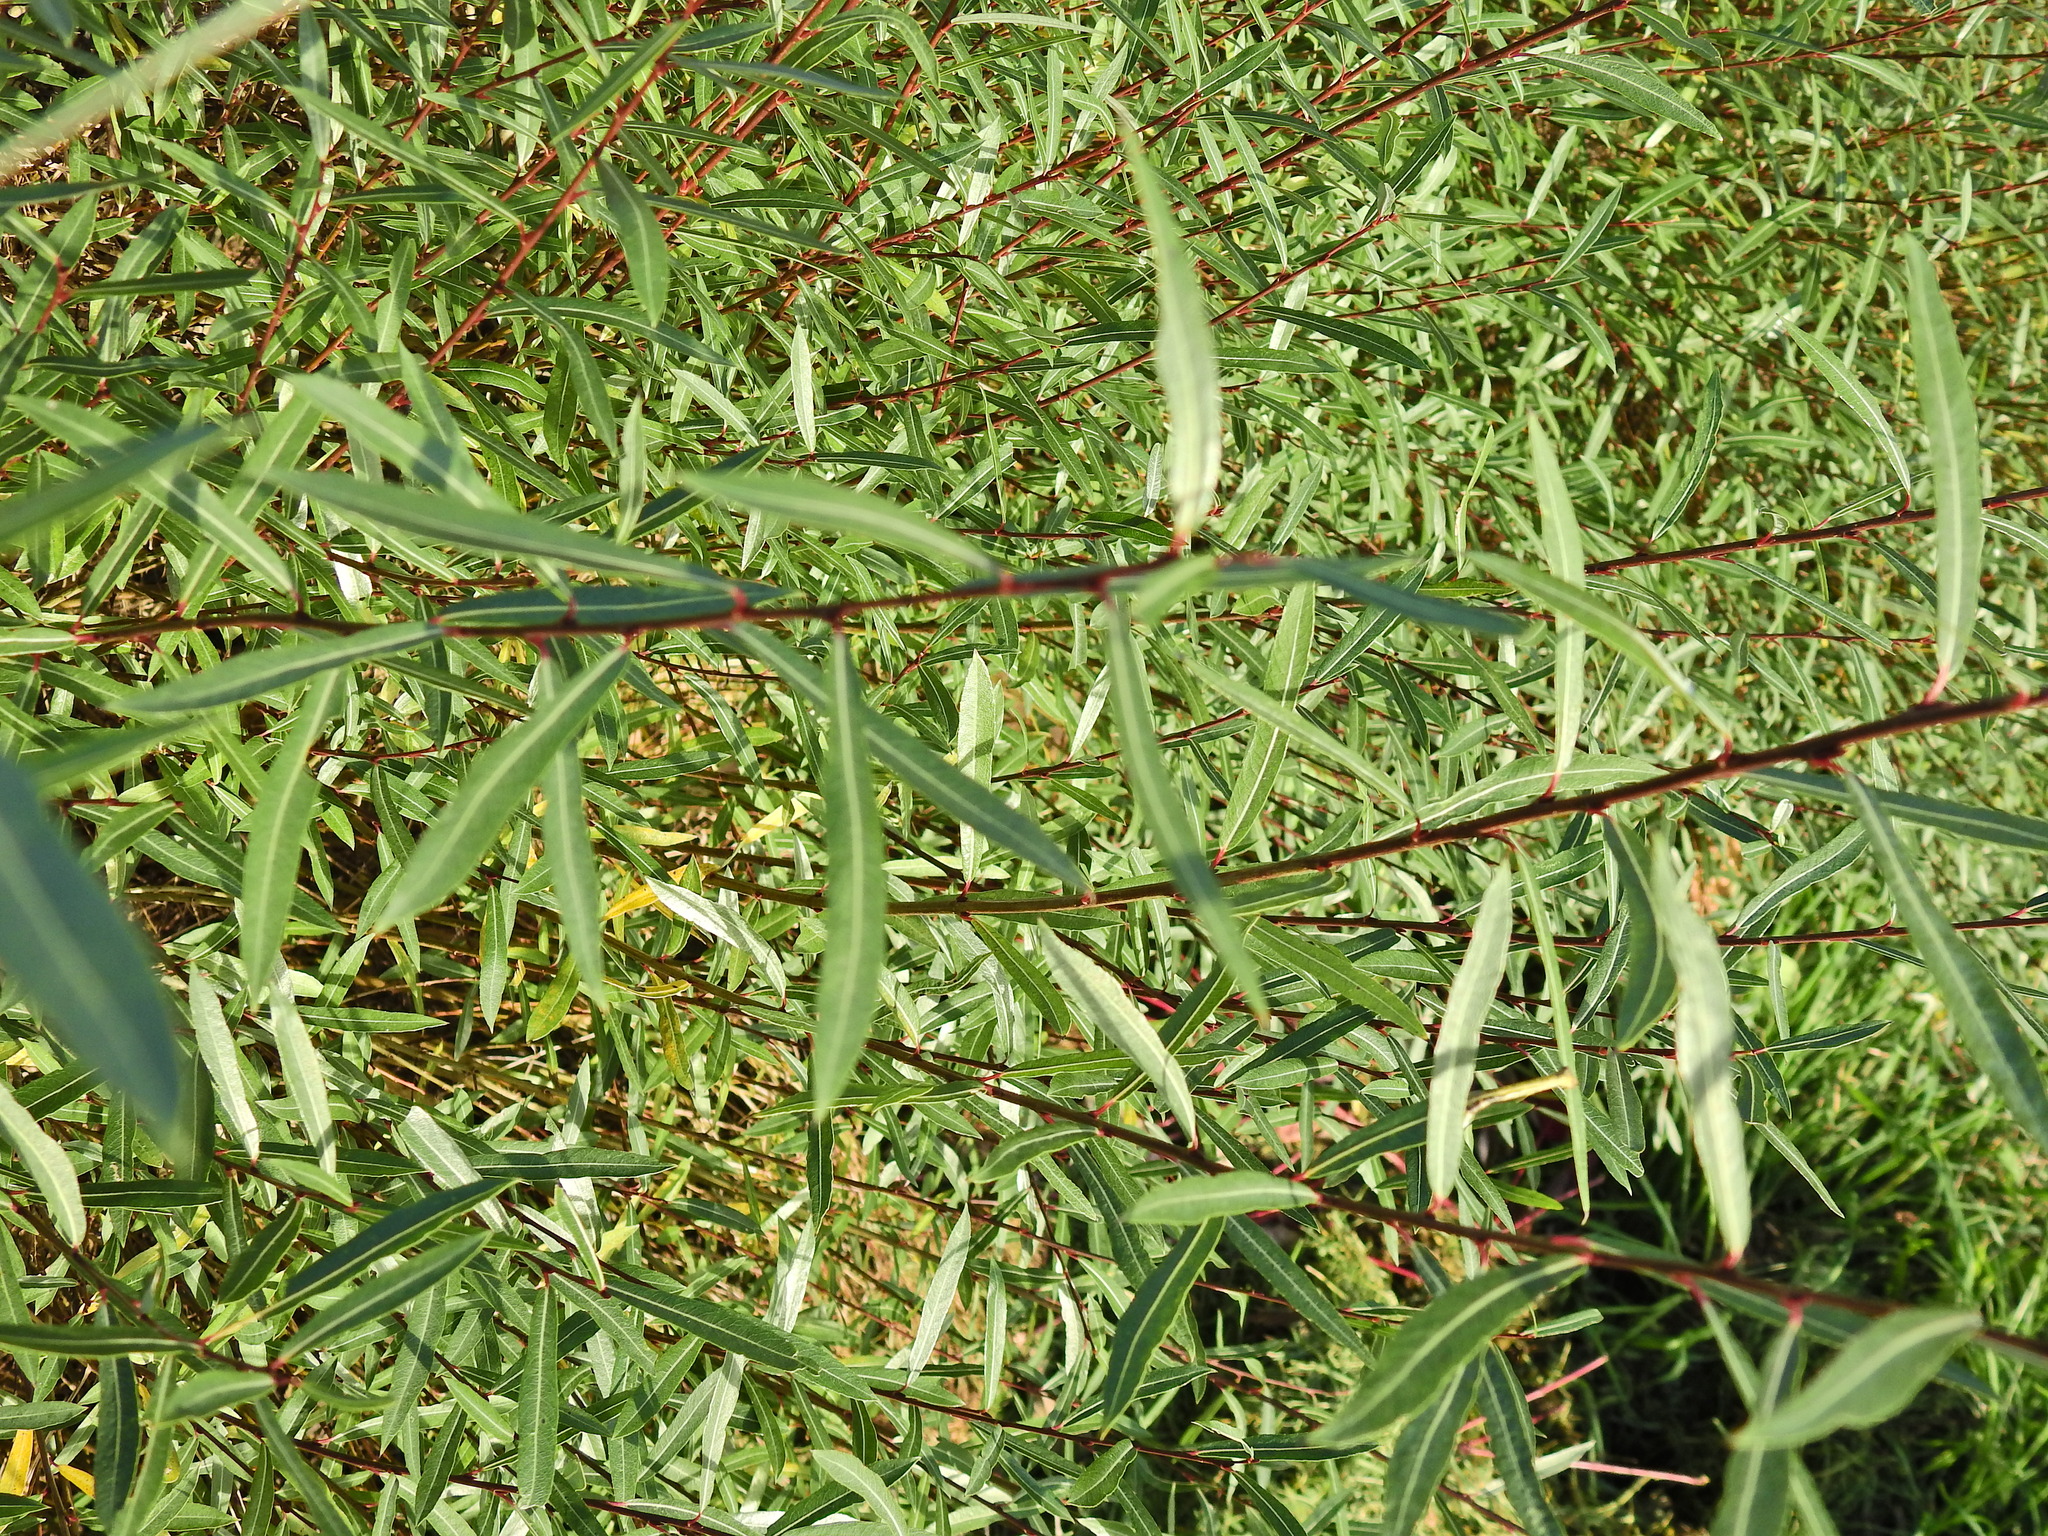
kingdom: Plantae
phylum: Tracheophyta
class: Magnoliopsida
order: Malpighiales
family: Salicaceae
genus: Salix
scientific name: Salix purpurea
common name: Purple willow
